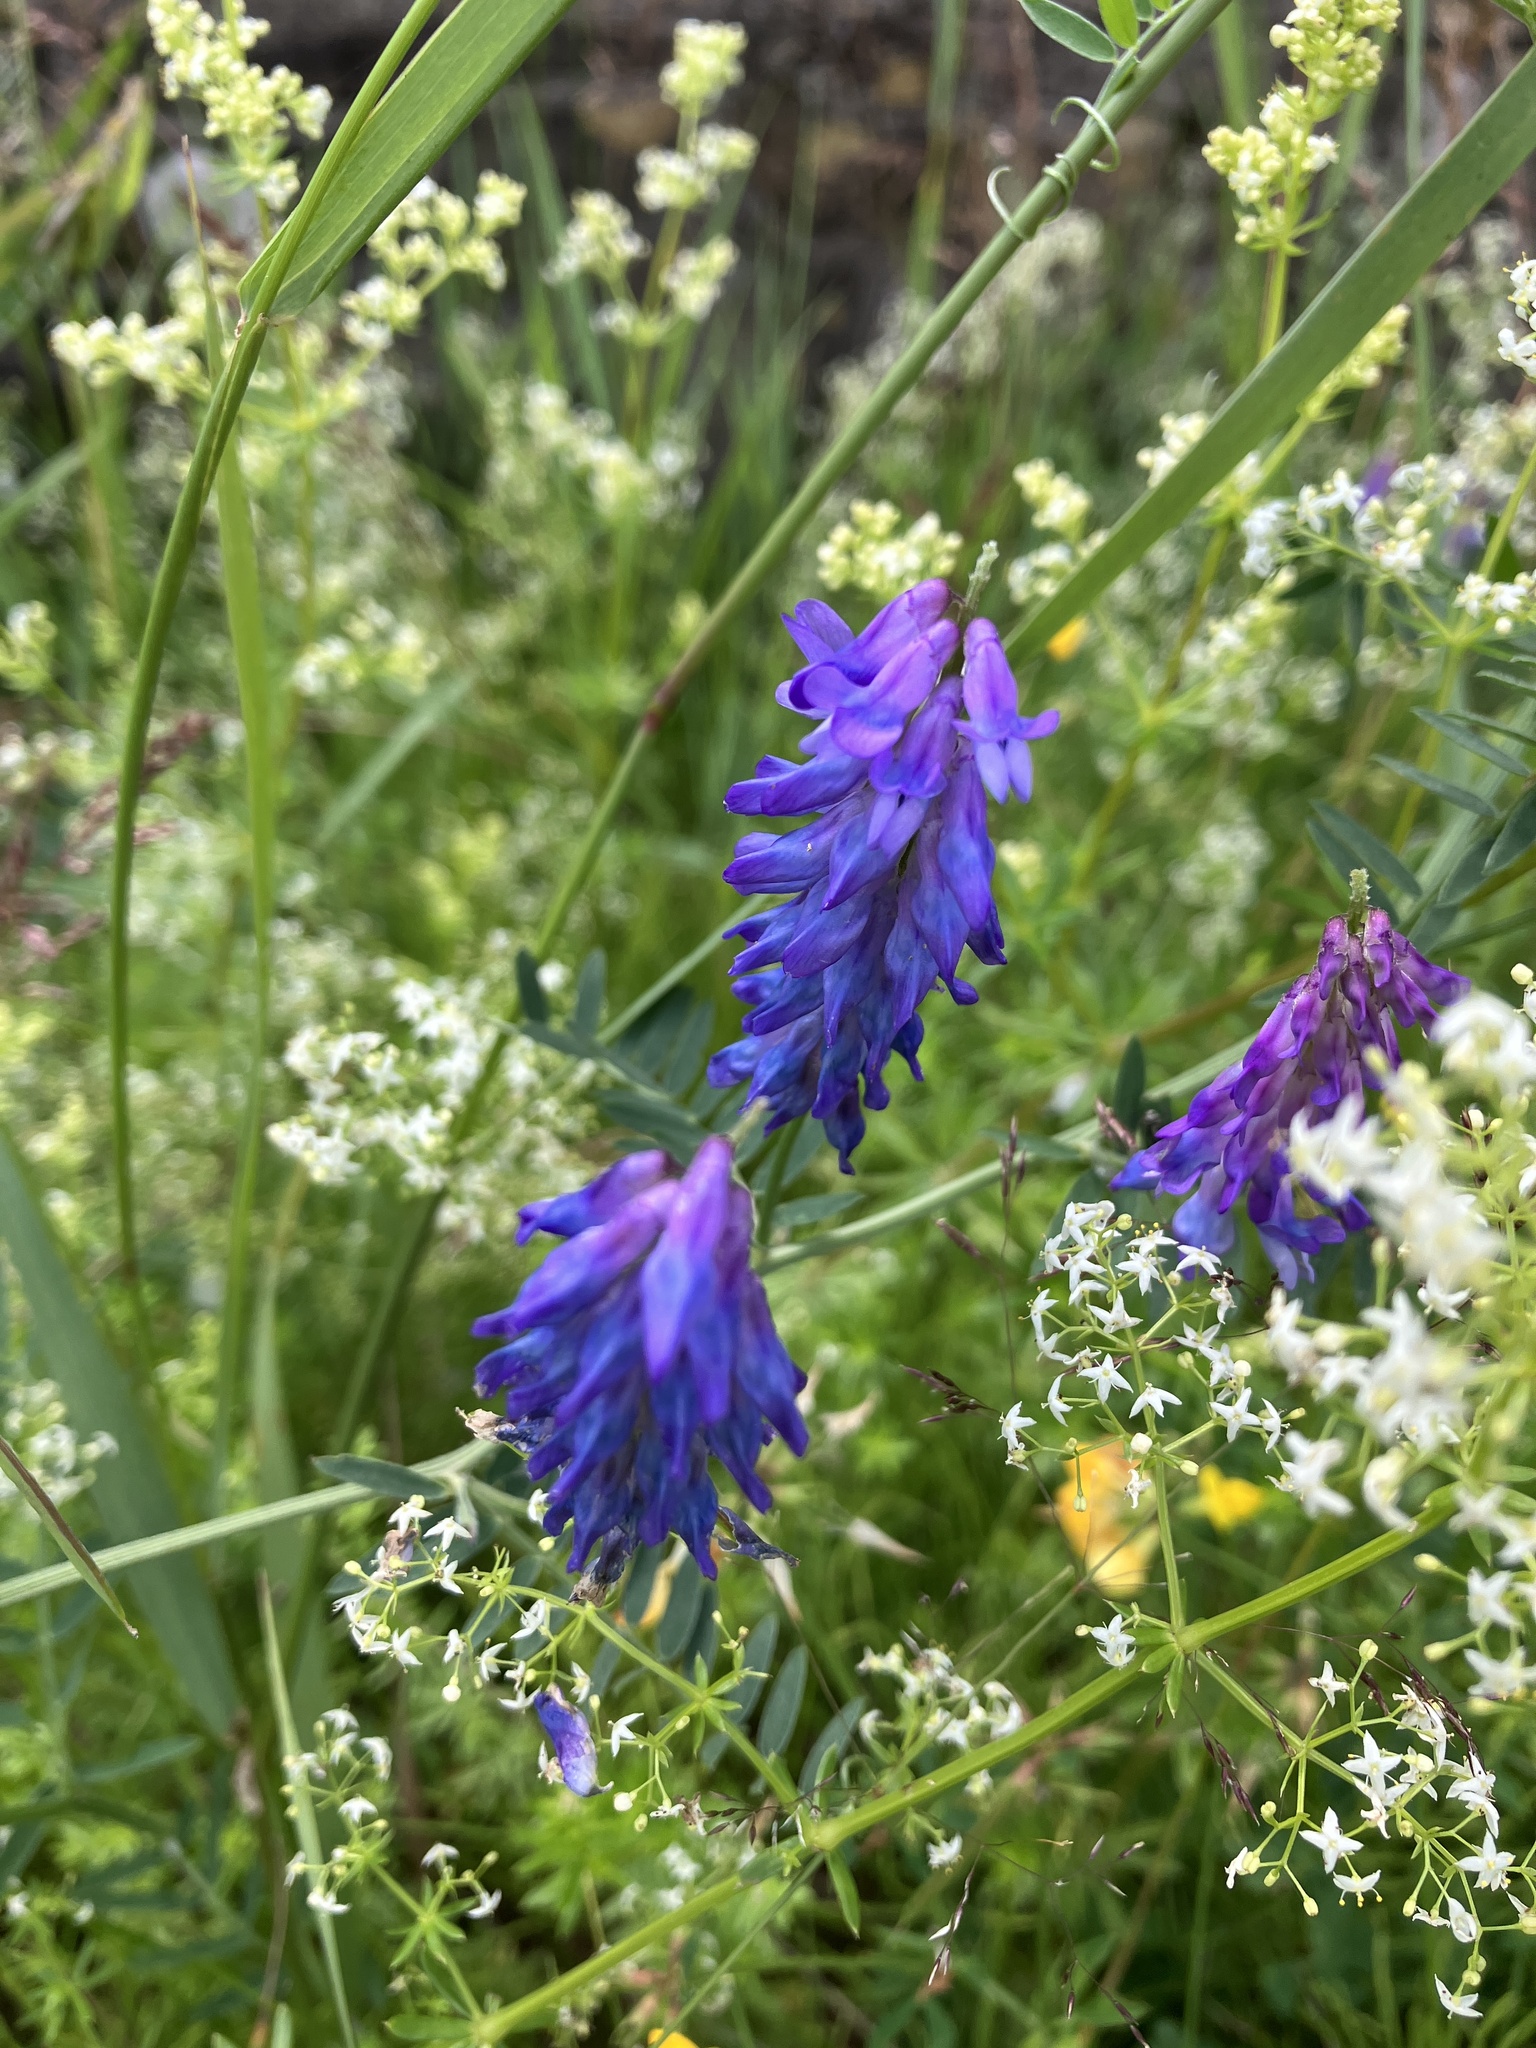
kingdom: Plantae
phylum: Tracheophyta
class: Magnoliopsida
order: Fabales
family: Fabaceae
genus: Vicia
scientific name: Vicia cracca
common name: Bird vetch
